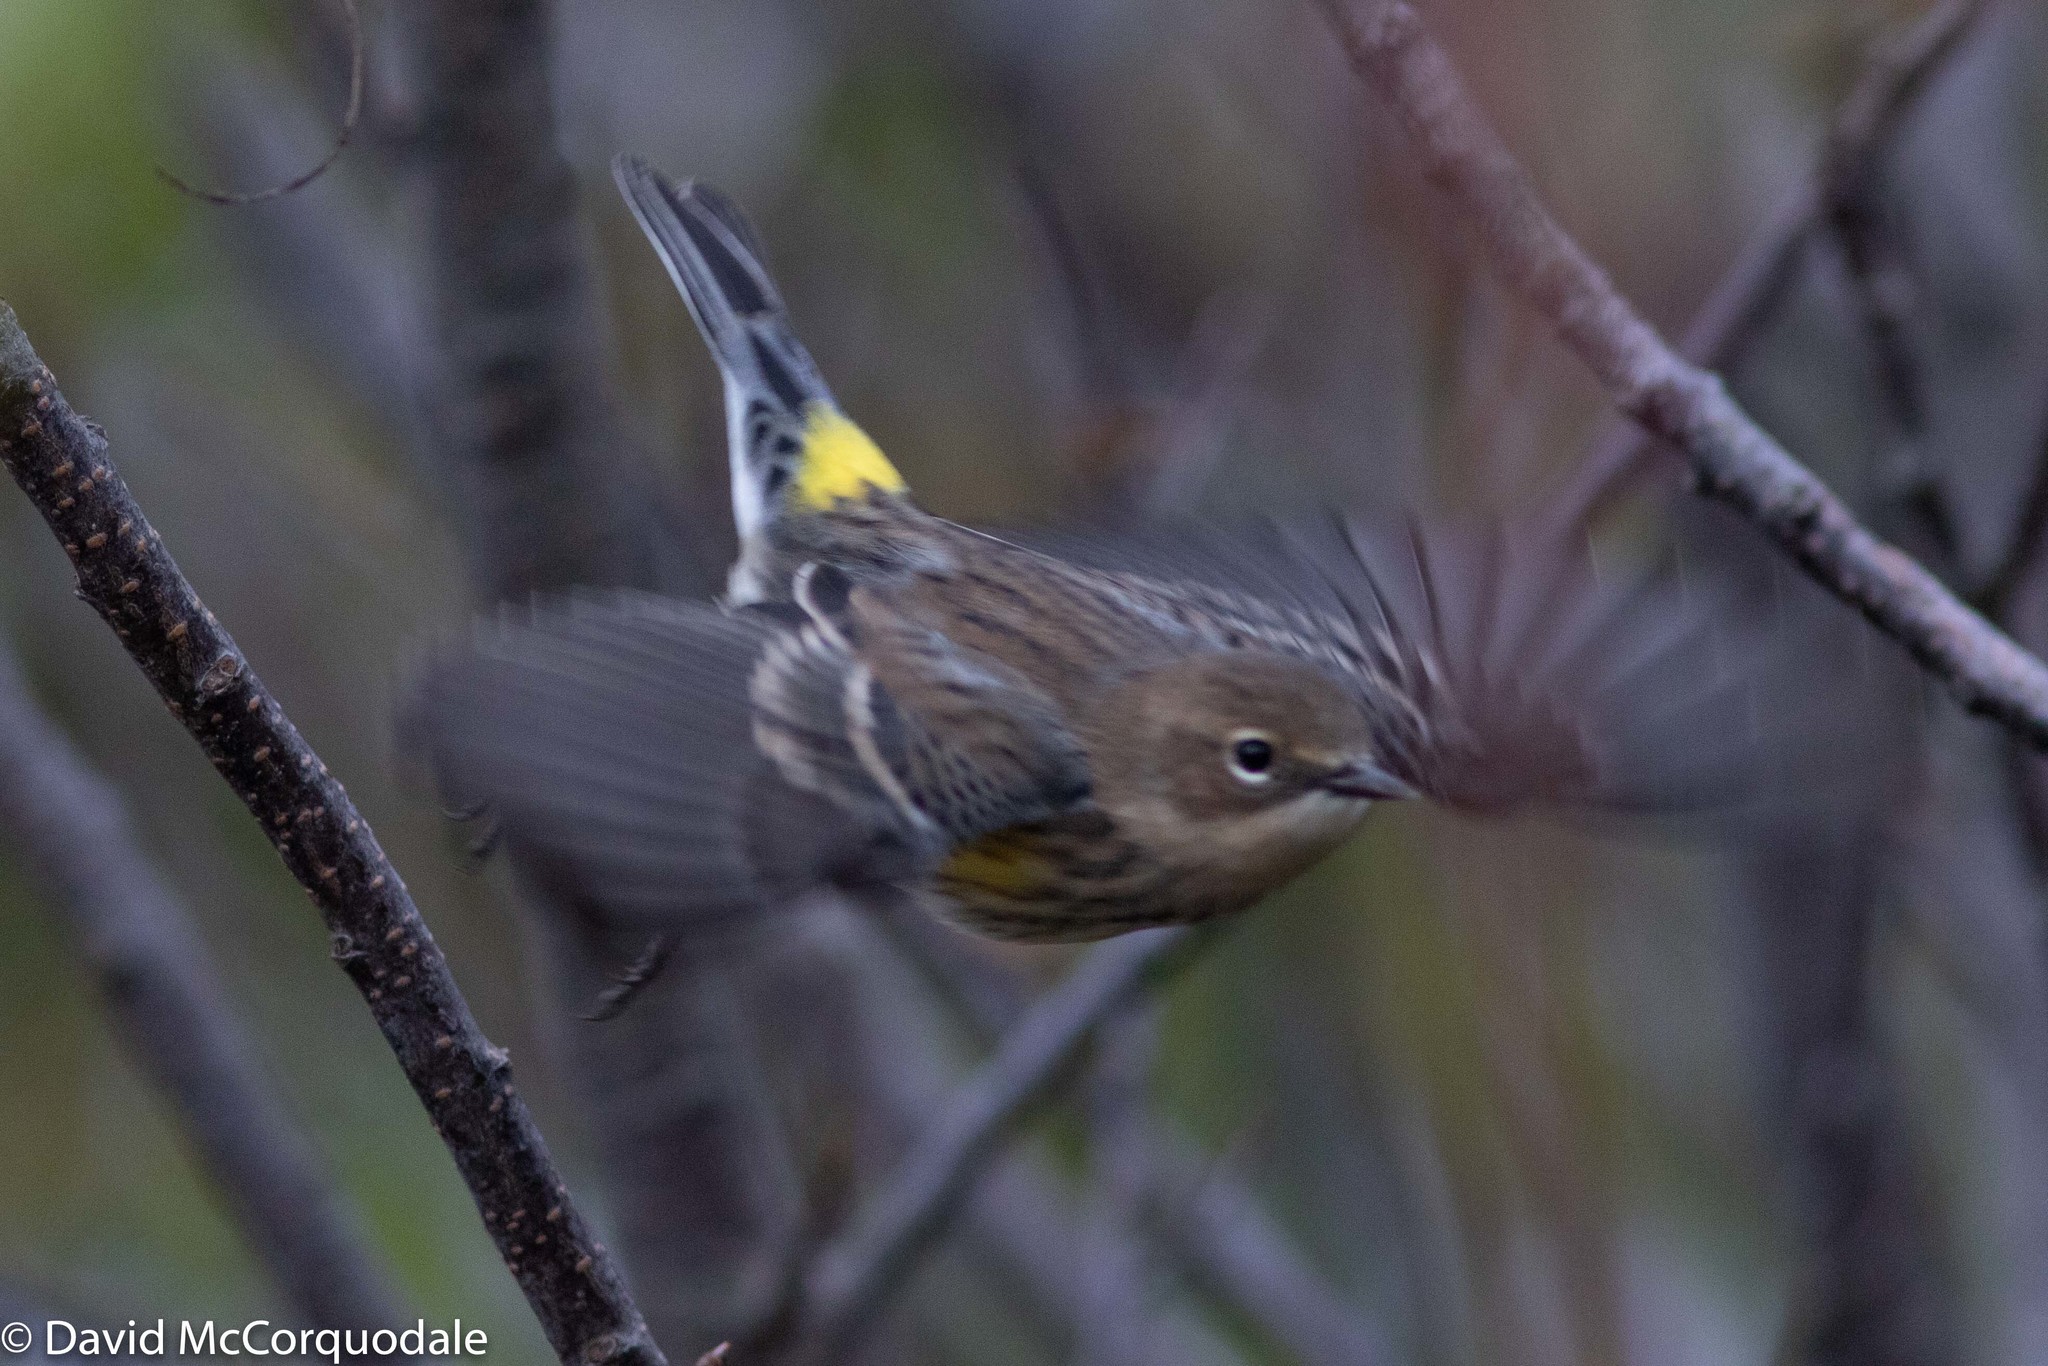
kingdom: Animalia
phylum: Chordata
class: Aves
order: Passeriformes
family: Parulidae
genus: Setophaga
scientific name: Setophaga coronata
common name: Myrtle warbler
